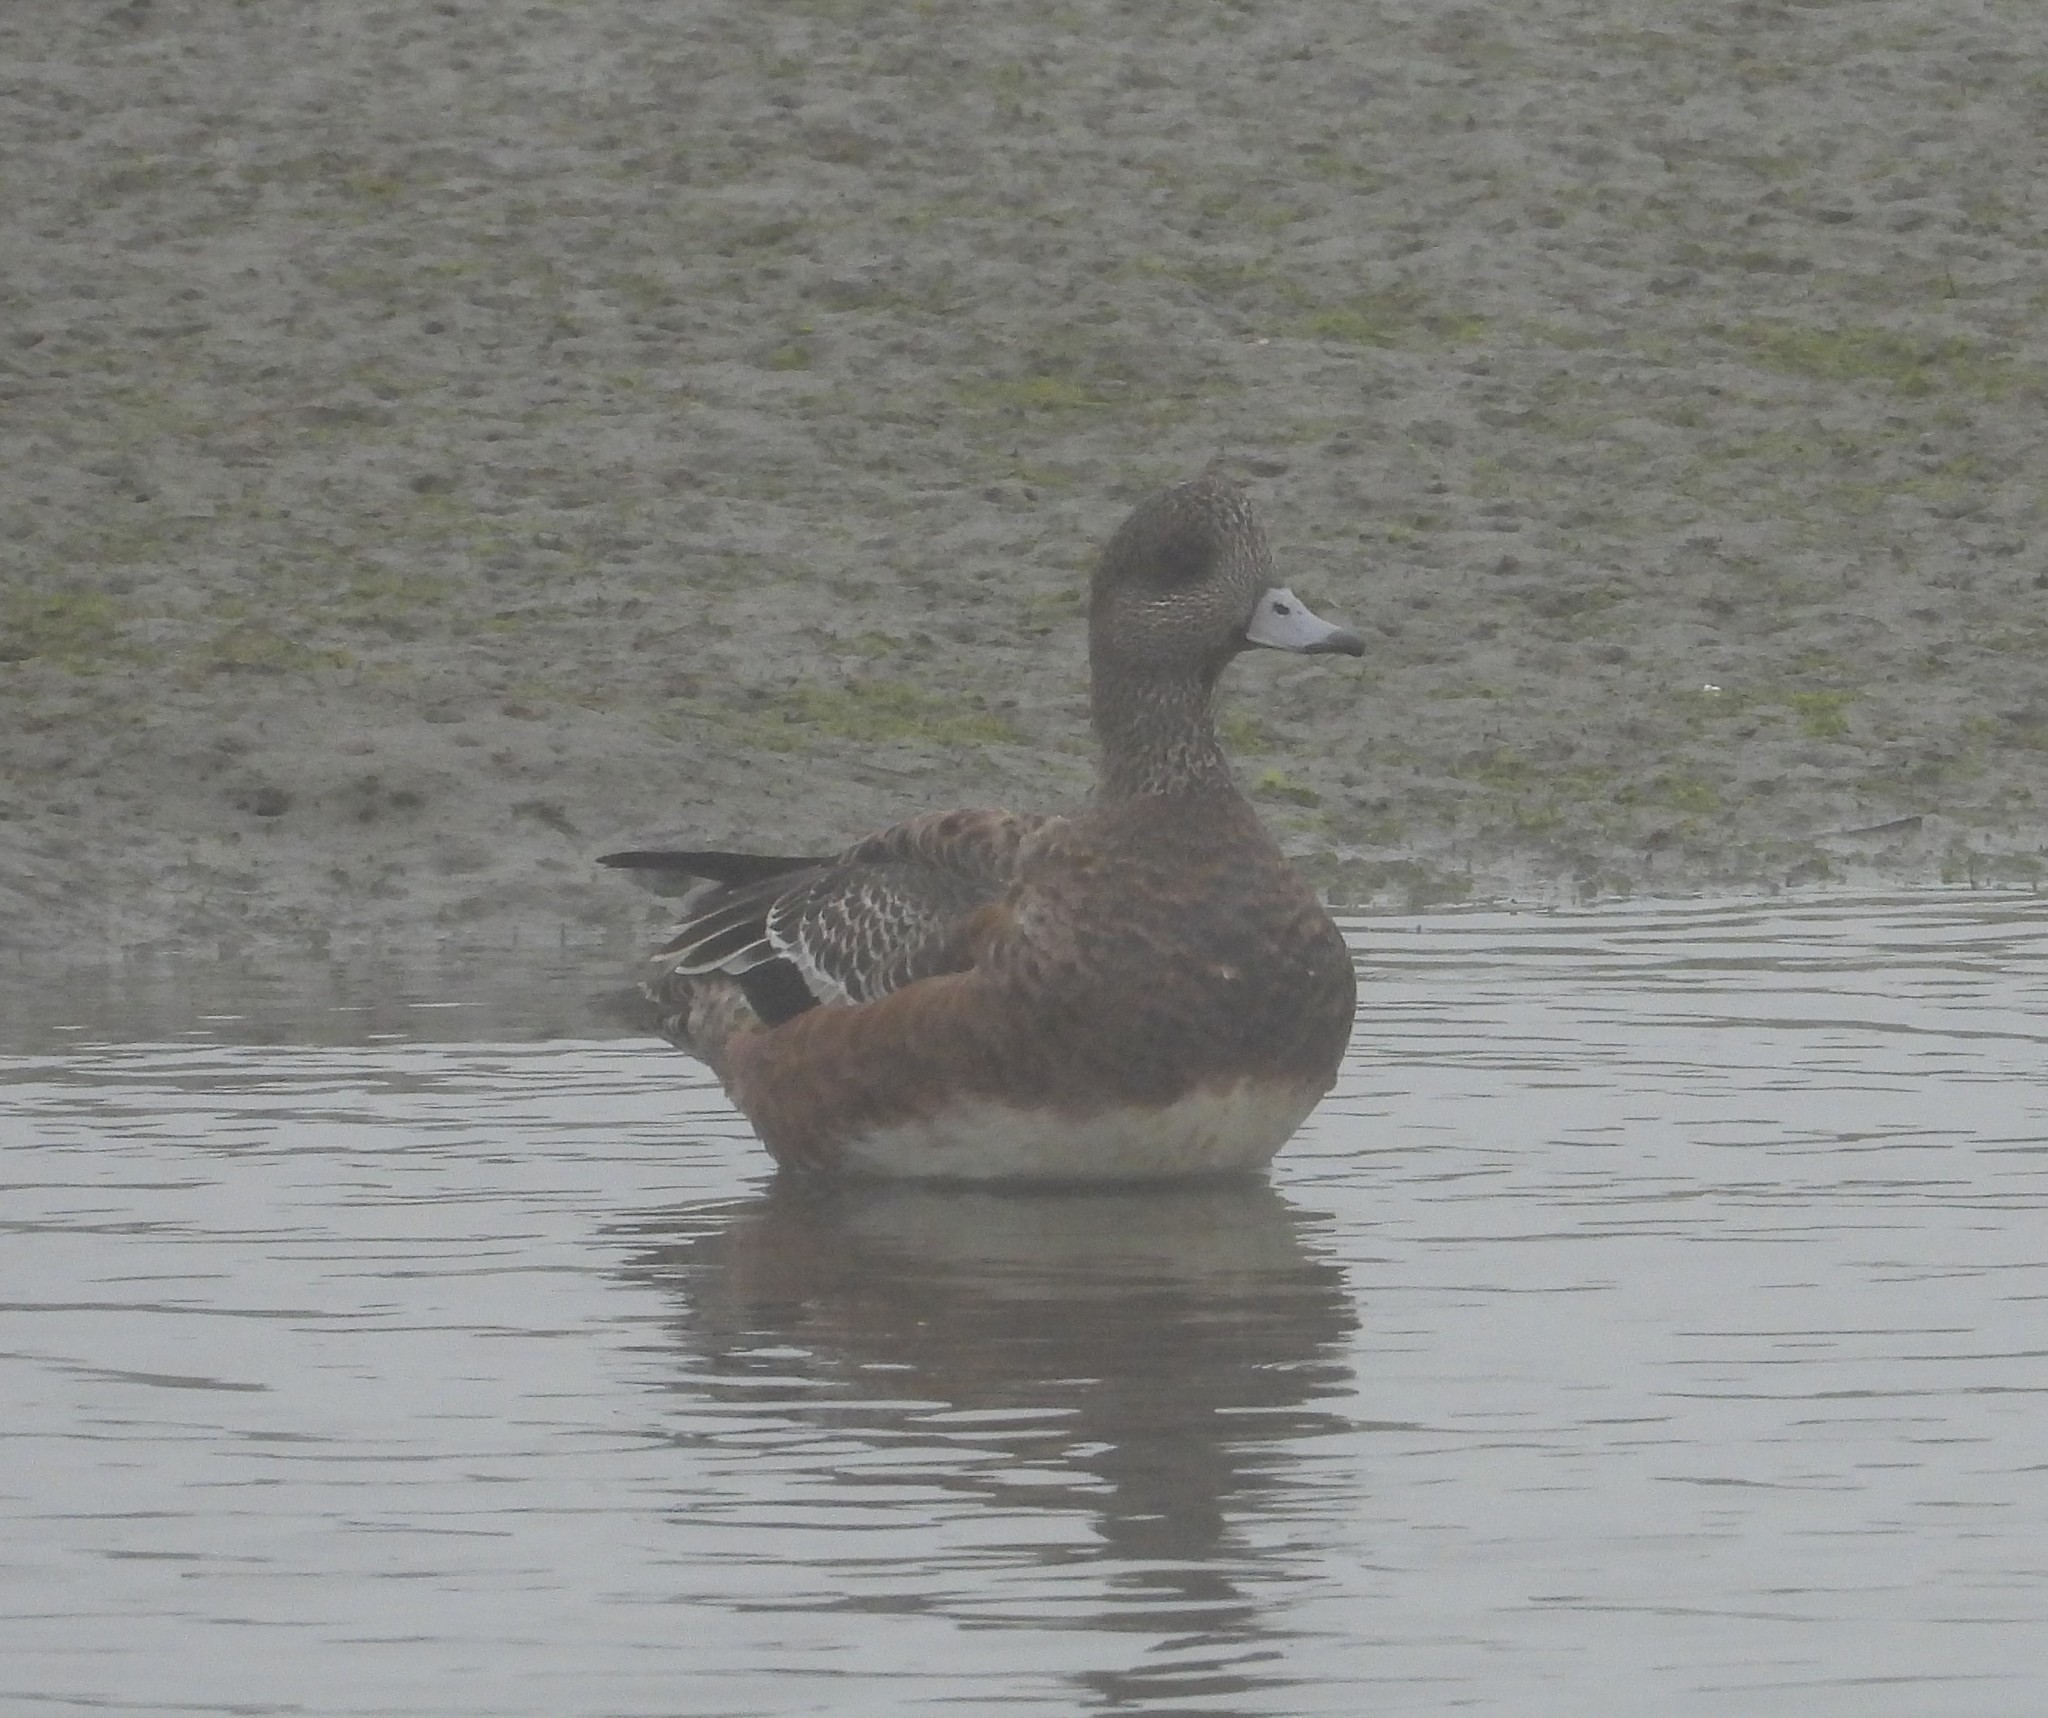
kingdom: Animalia
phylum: Chordata
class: Aves
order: Anseriformes
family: Anatidae
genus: Mareca
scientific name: Mareca americana
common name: American wigeon
